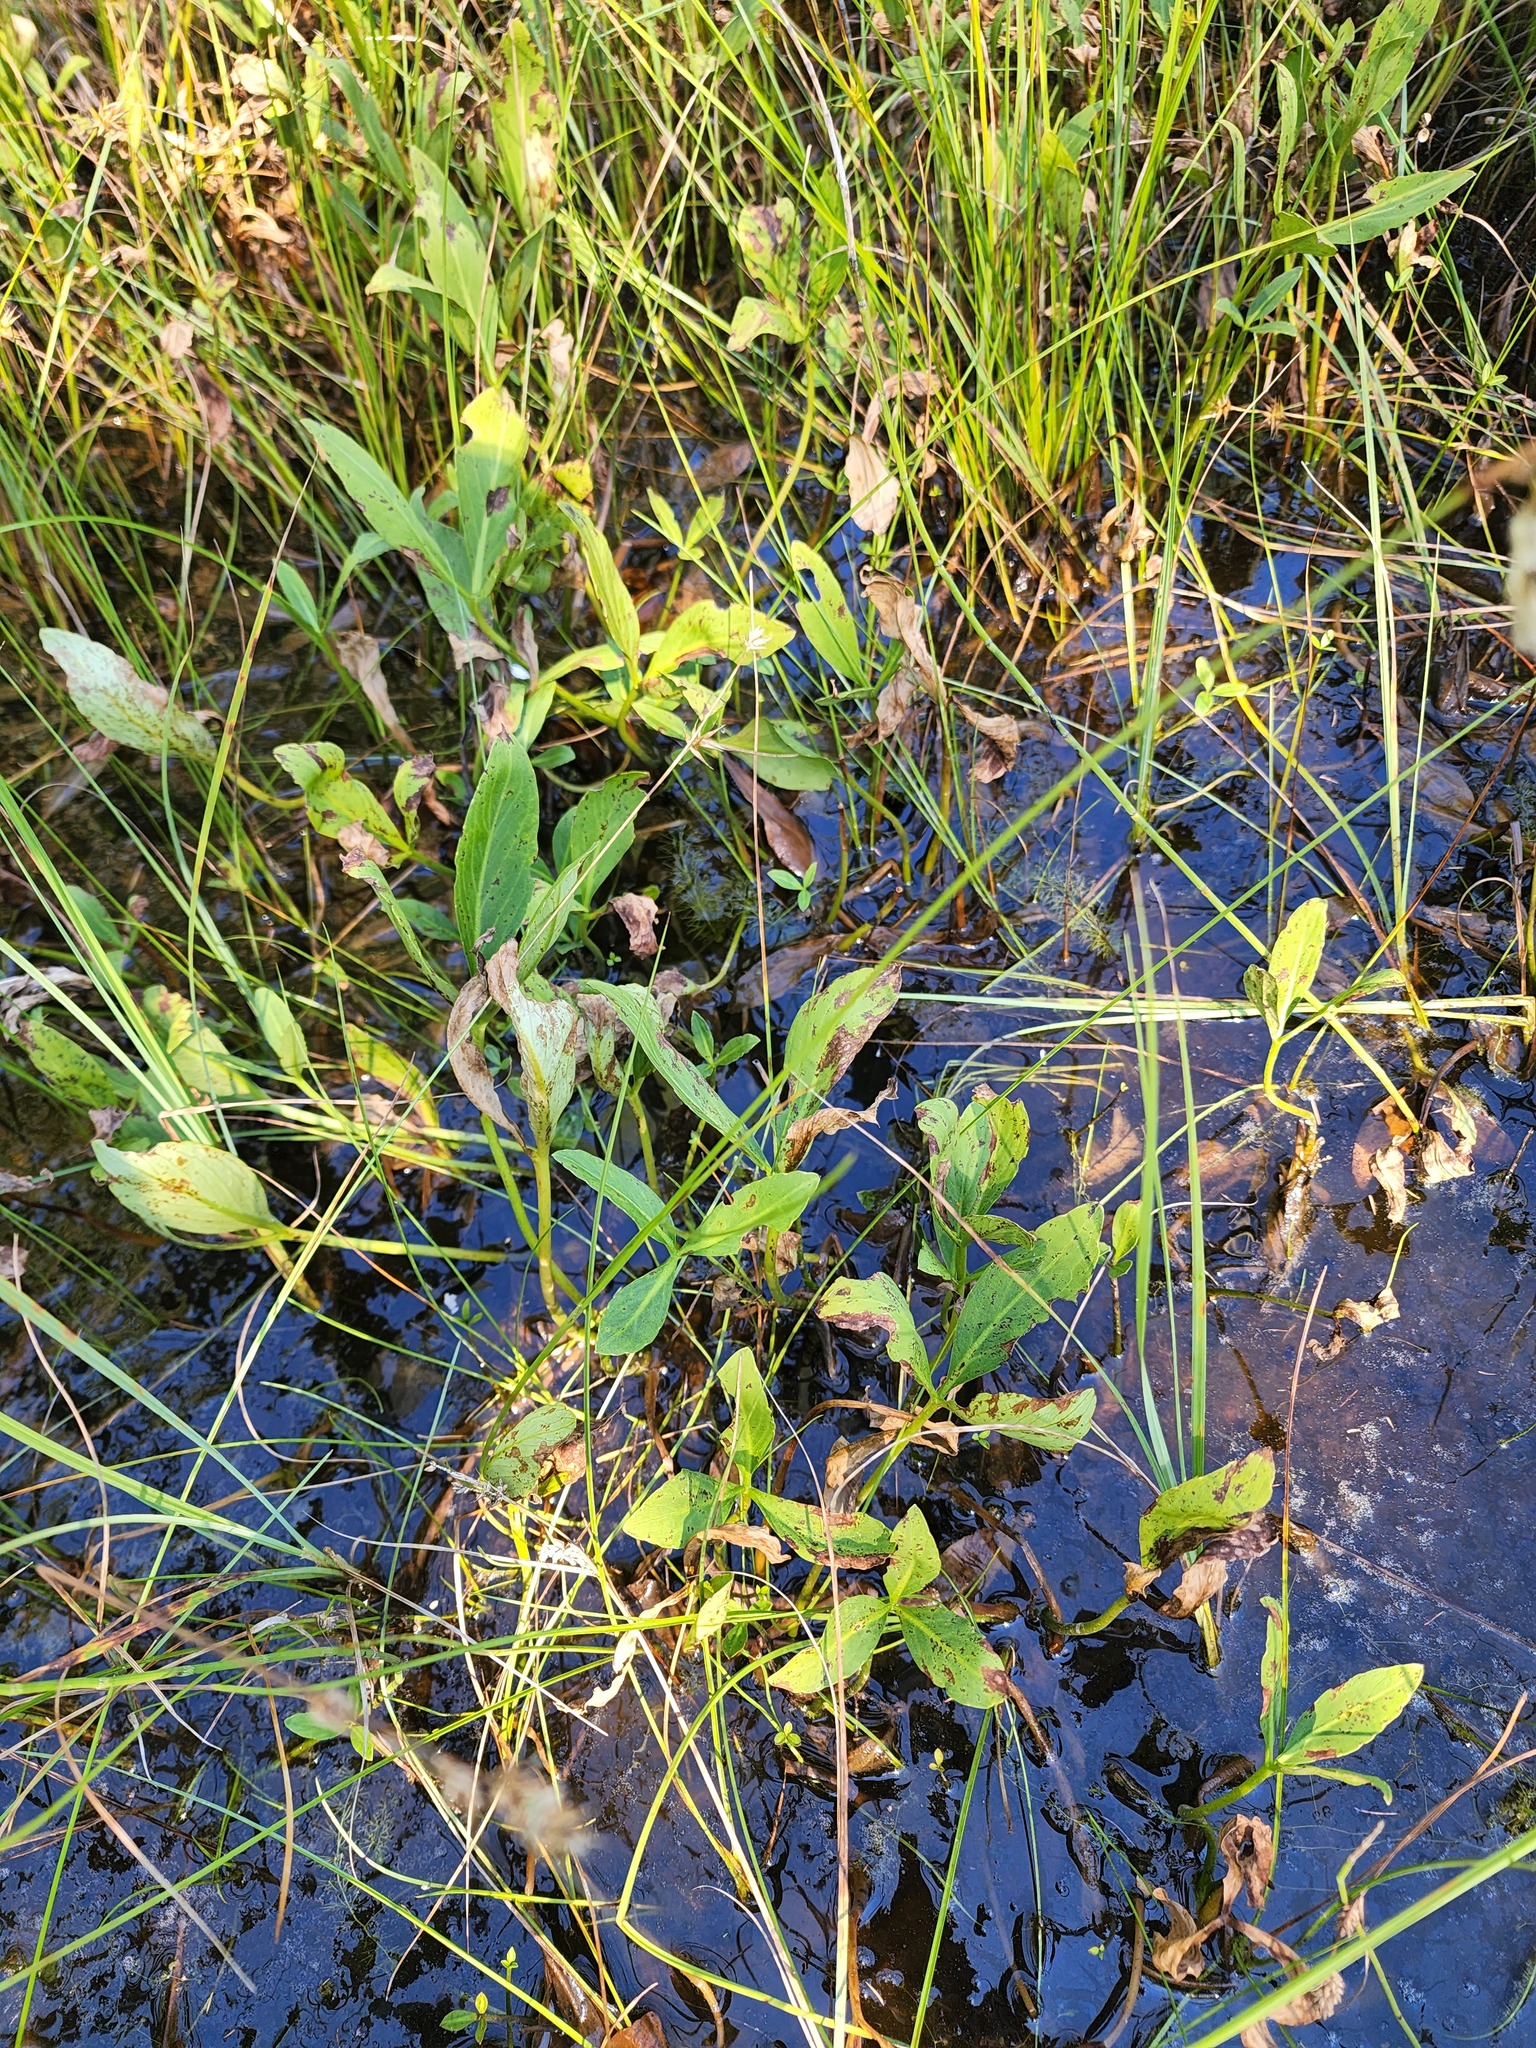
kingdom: Plantae
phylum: Tracheophyta
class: Magnoliopsida
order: Asterales
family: Menyanthaceae
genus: Menyanthes
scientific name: Menyanthes trifoliata
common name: Bogbean
